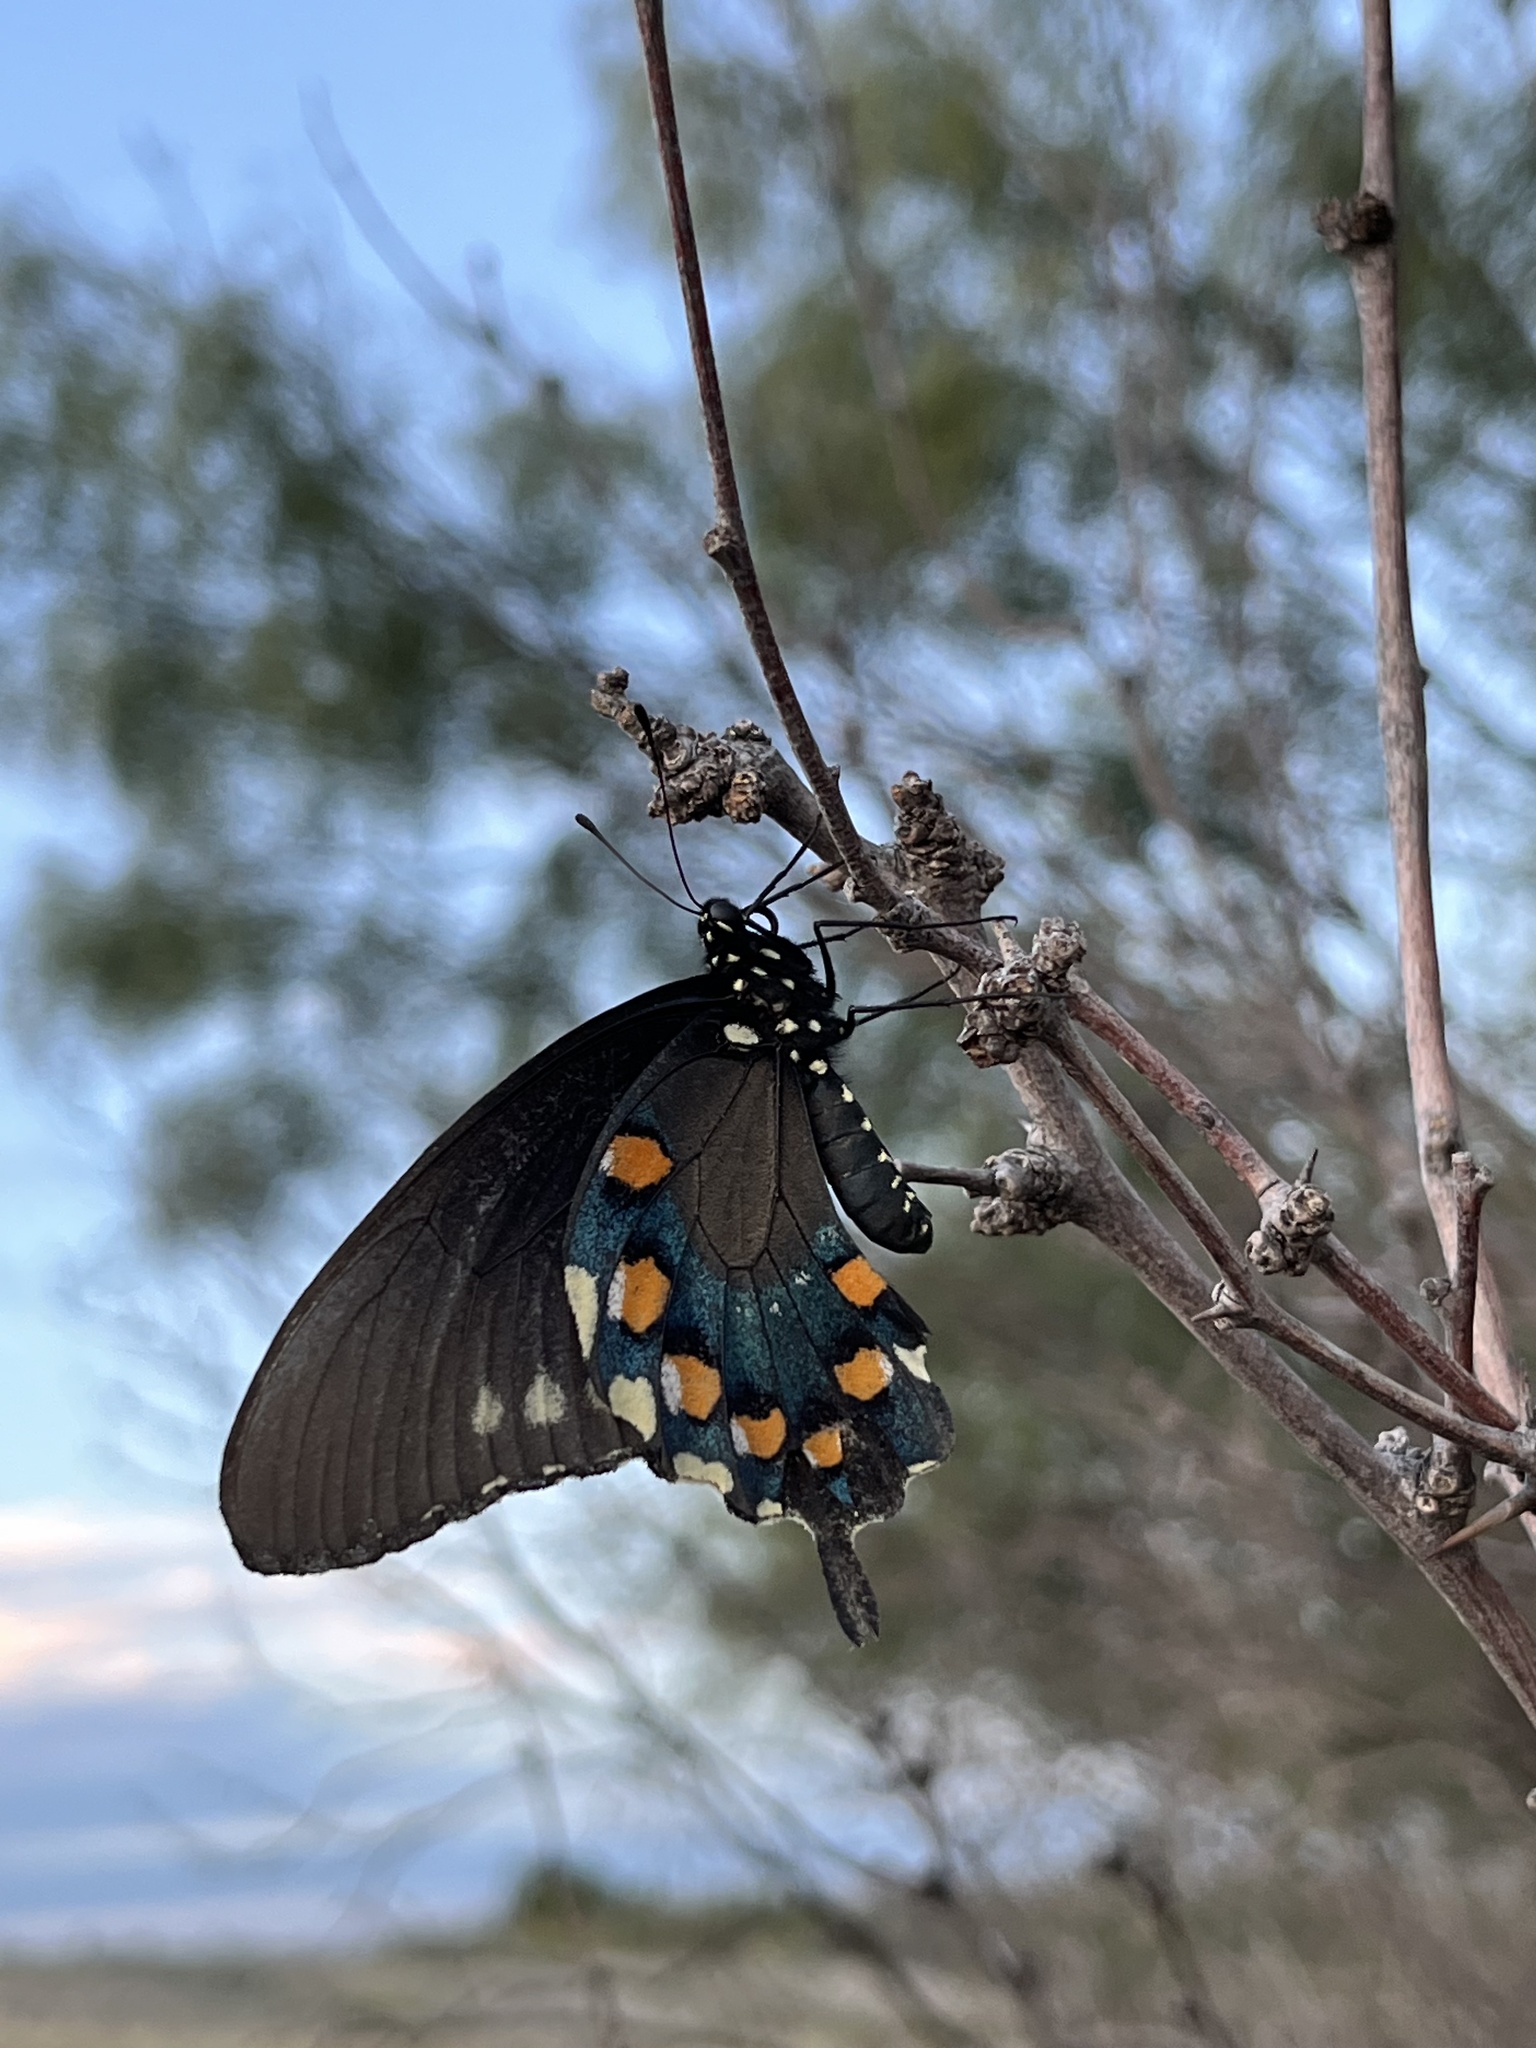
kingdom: Animalia
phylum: Arthropoda
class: Insecta
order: Lepidoptera
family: Papilionidae
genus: Battus
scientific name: Battus philenor
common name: Pipevine swallowtail
